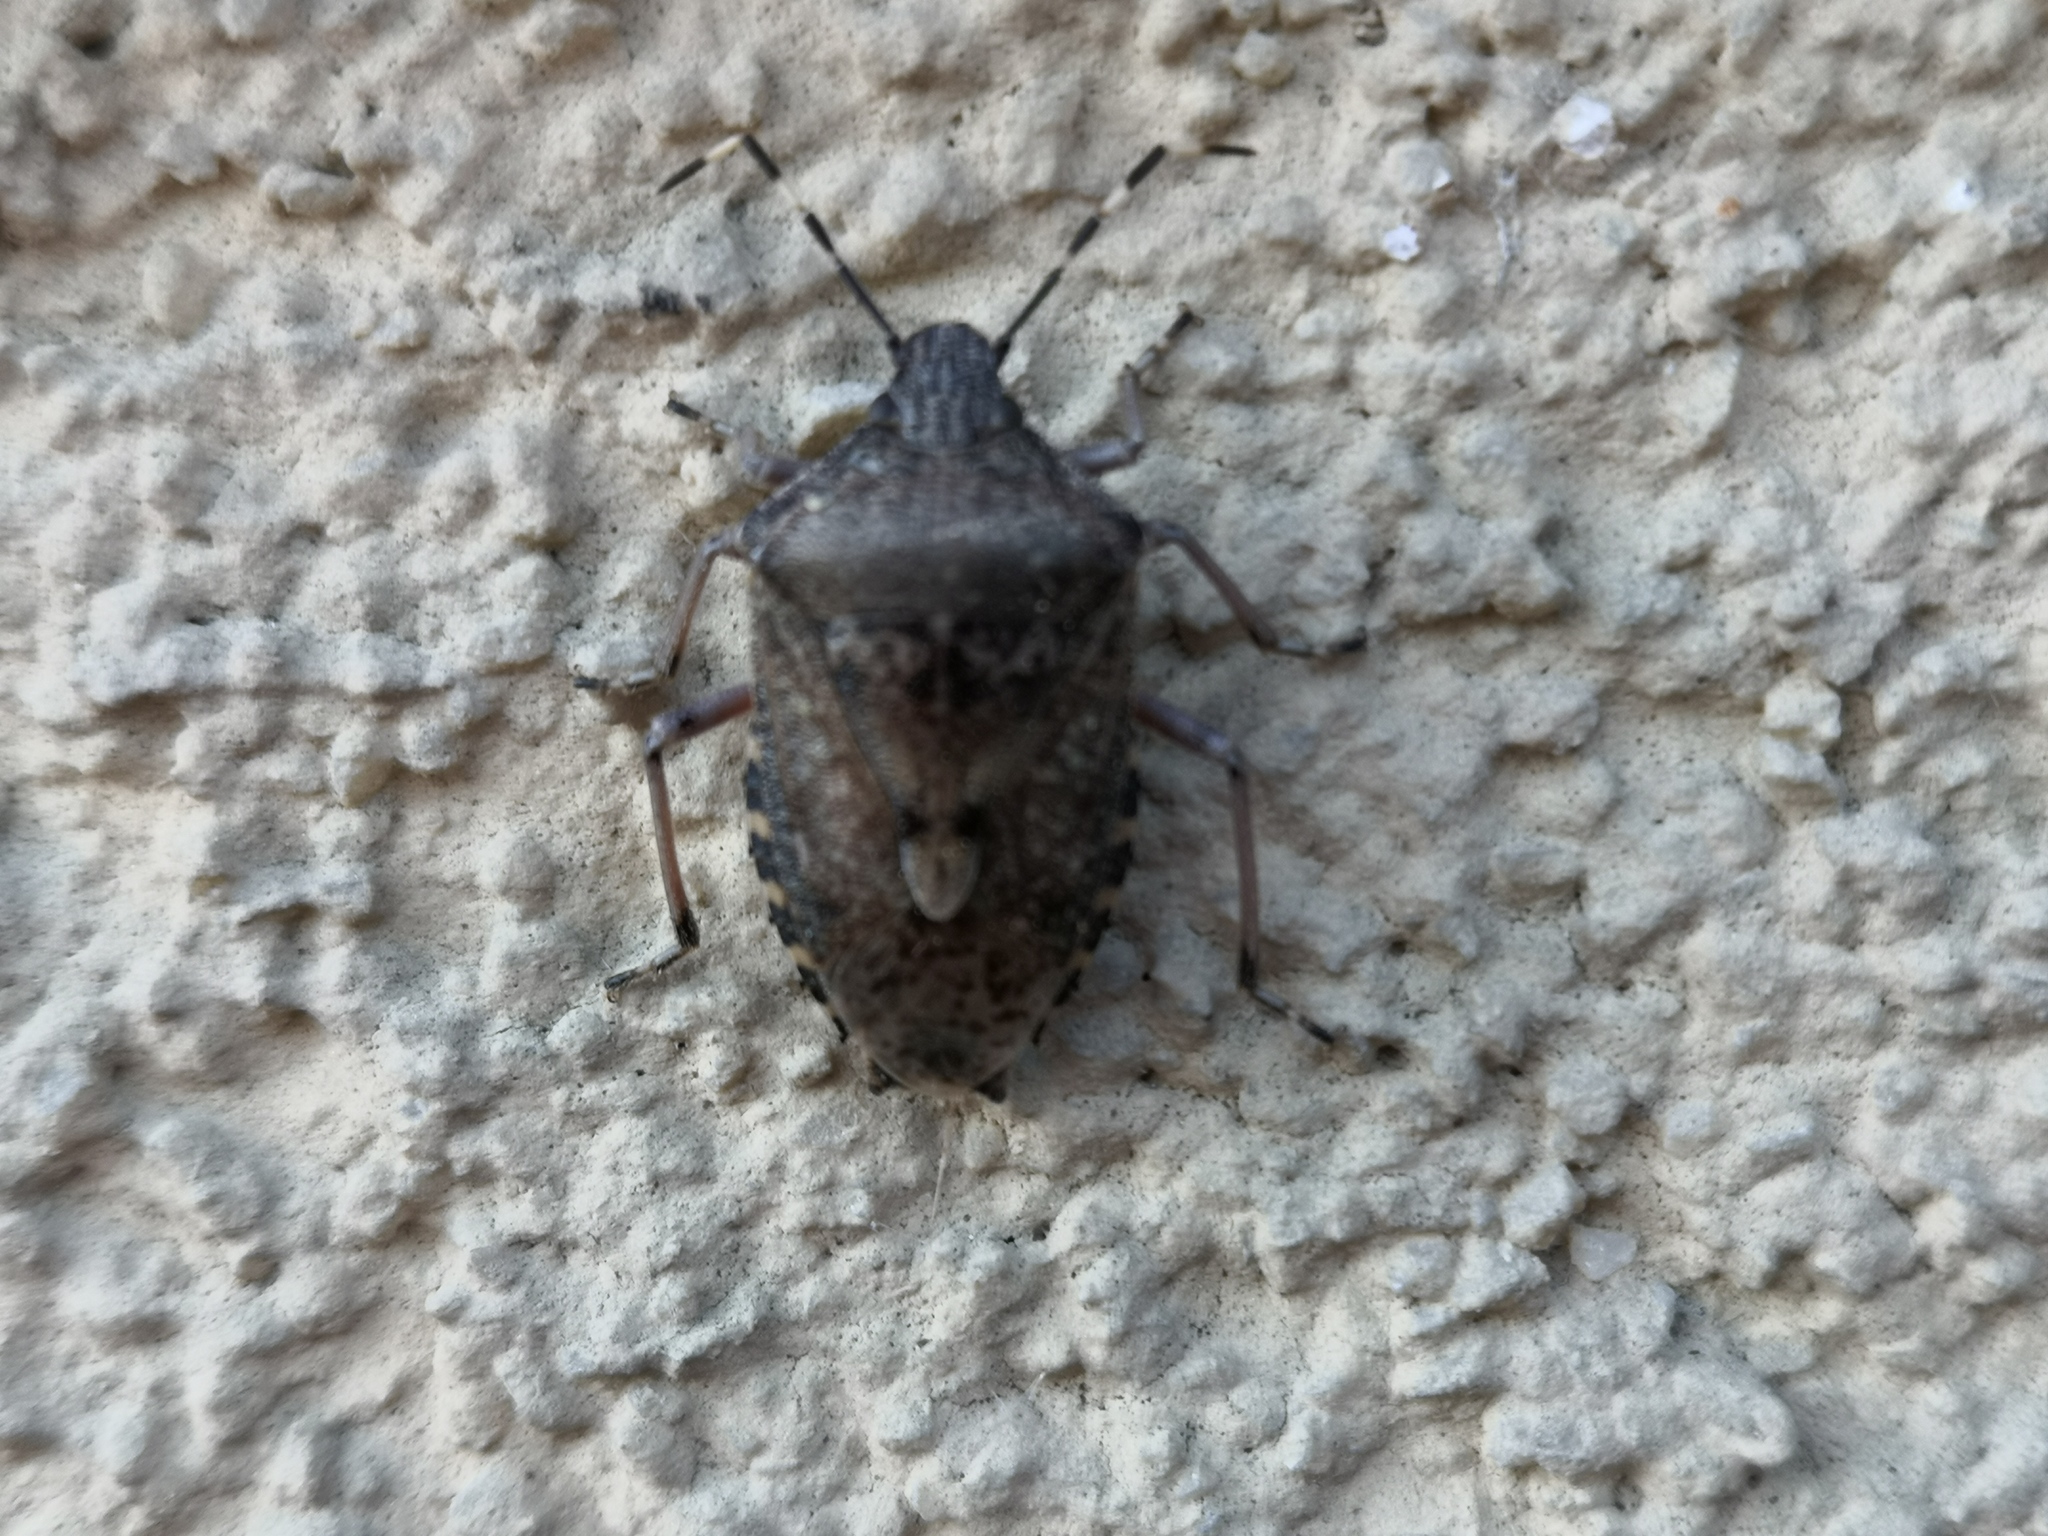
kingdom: Animalia
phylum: Arthropoda
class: Insecta
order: Hemiptera
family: Pentatomidae
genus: Rhaphigaster
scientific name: Rhaphigaster nebulosa
